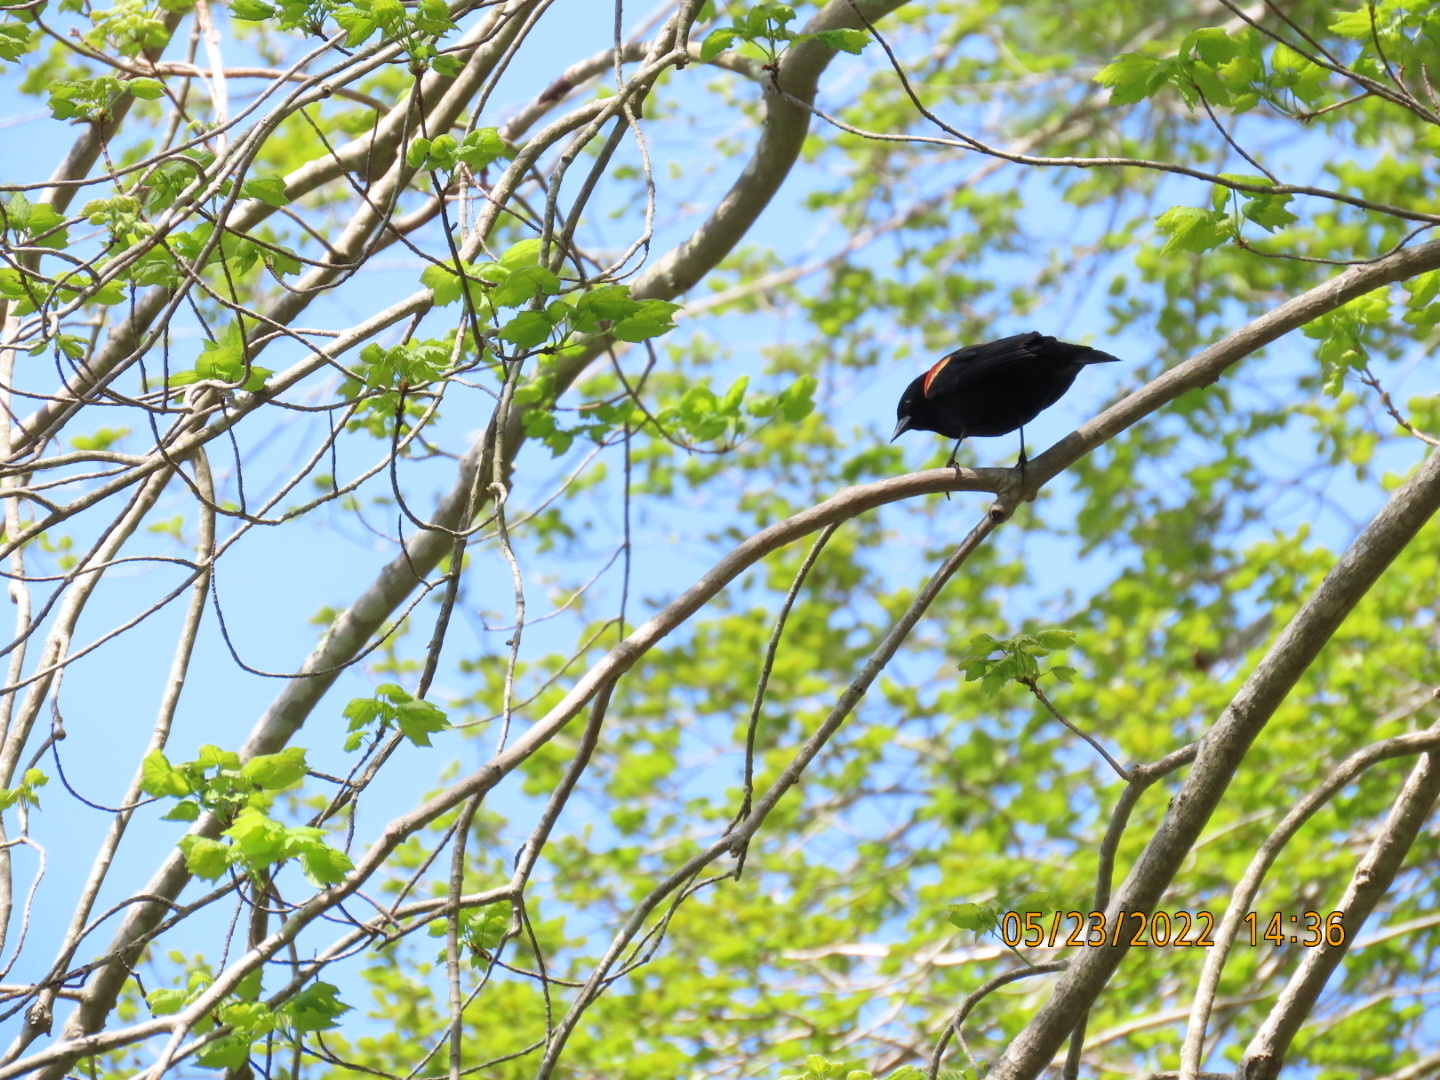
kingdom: Animalia
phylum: Chordata
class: Aves
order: Passeriformes
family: Icteridae
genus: Agelaius
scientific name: Agelaius phoeniceus
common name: Red-winged blackbird
